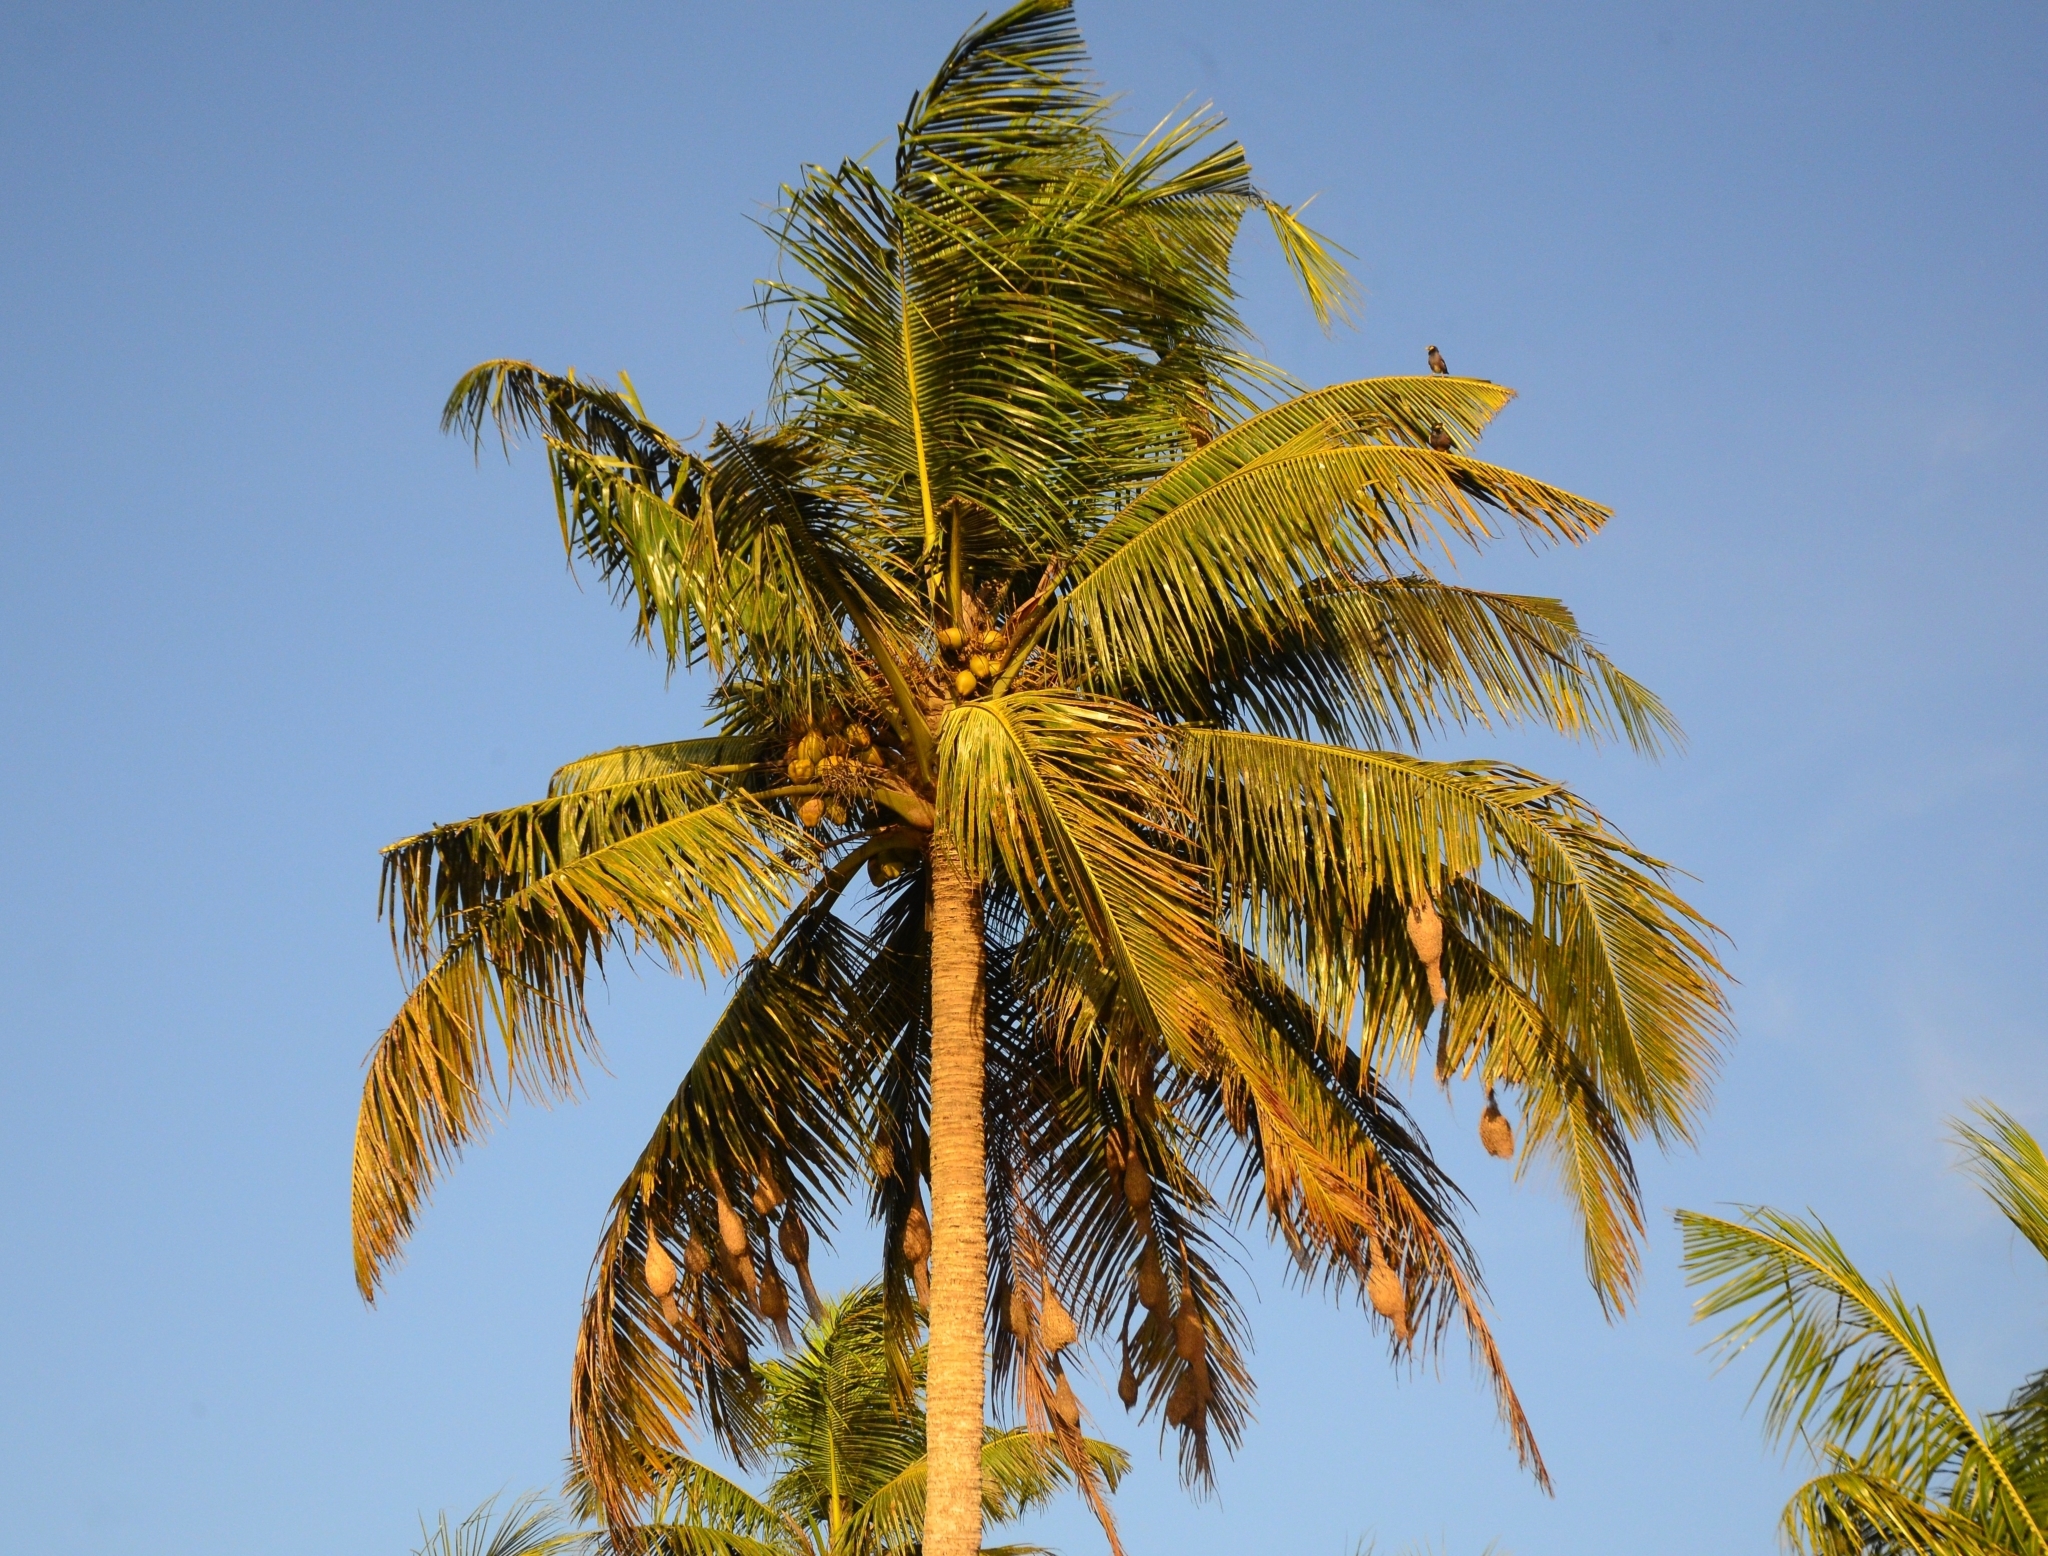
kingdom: Animalia
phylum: Chordata
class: Aves
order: Passeriformes
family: Ploceidae
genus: Ploceus
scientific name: Ploceus philippinus
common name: Baya weaver
